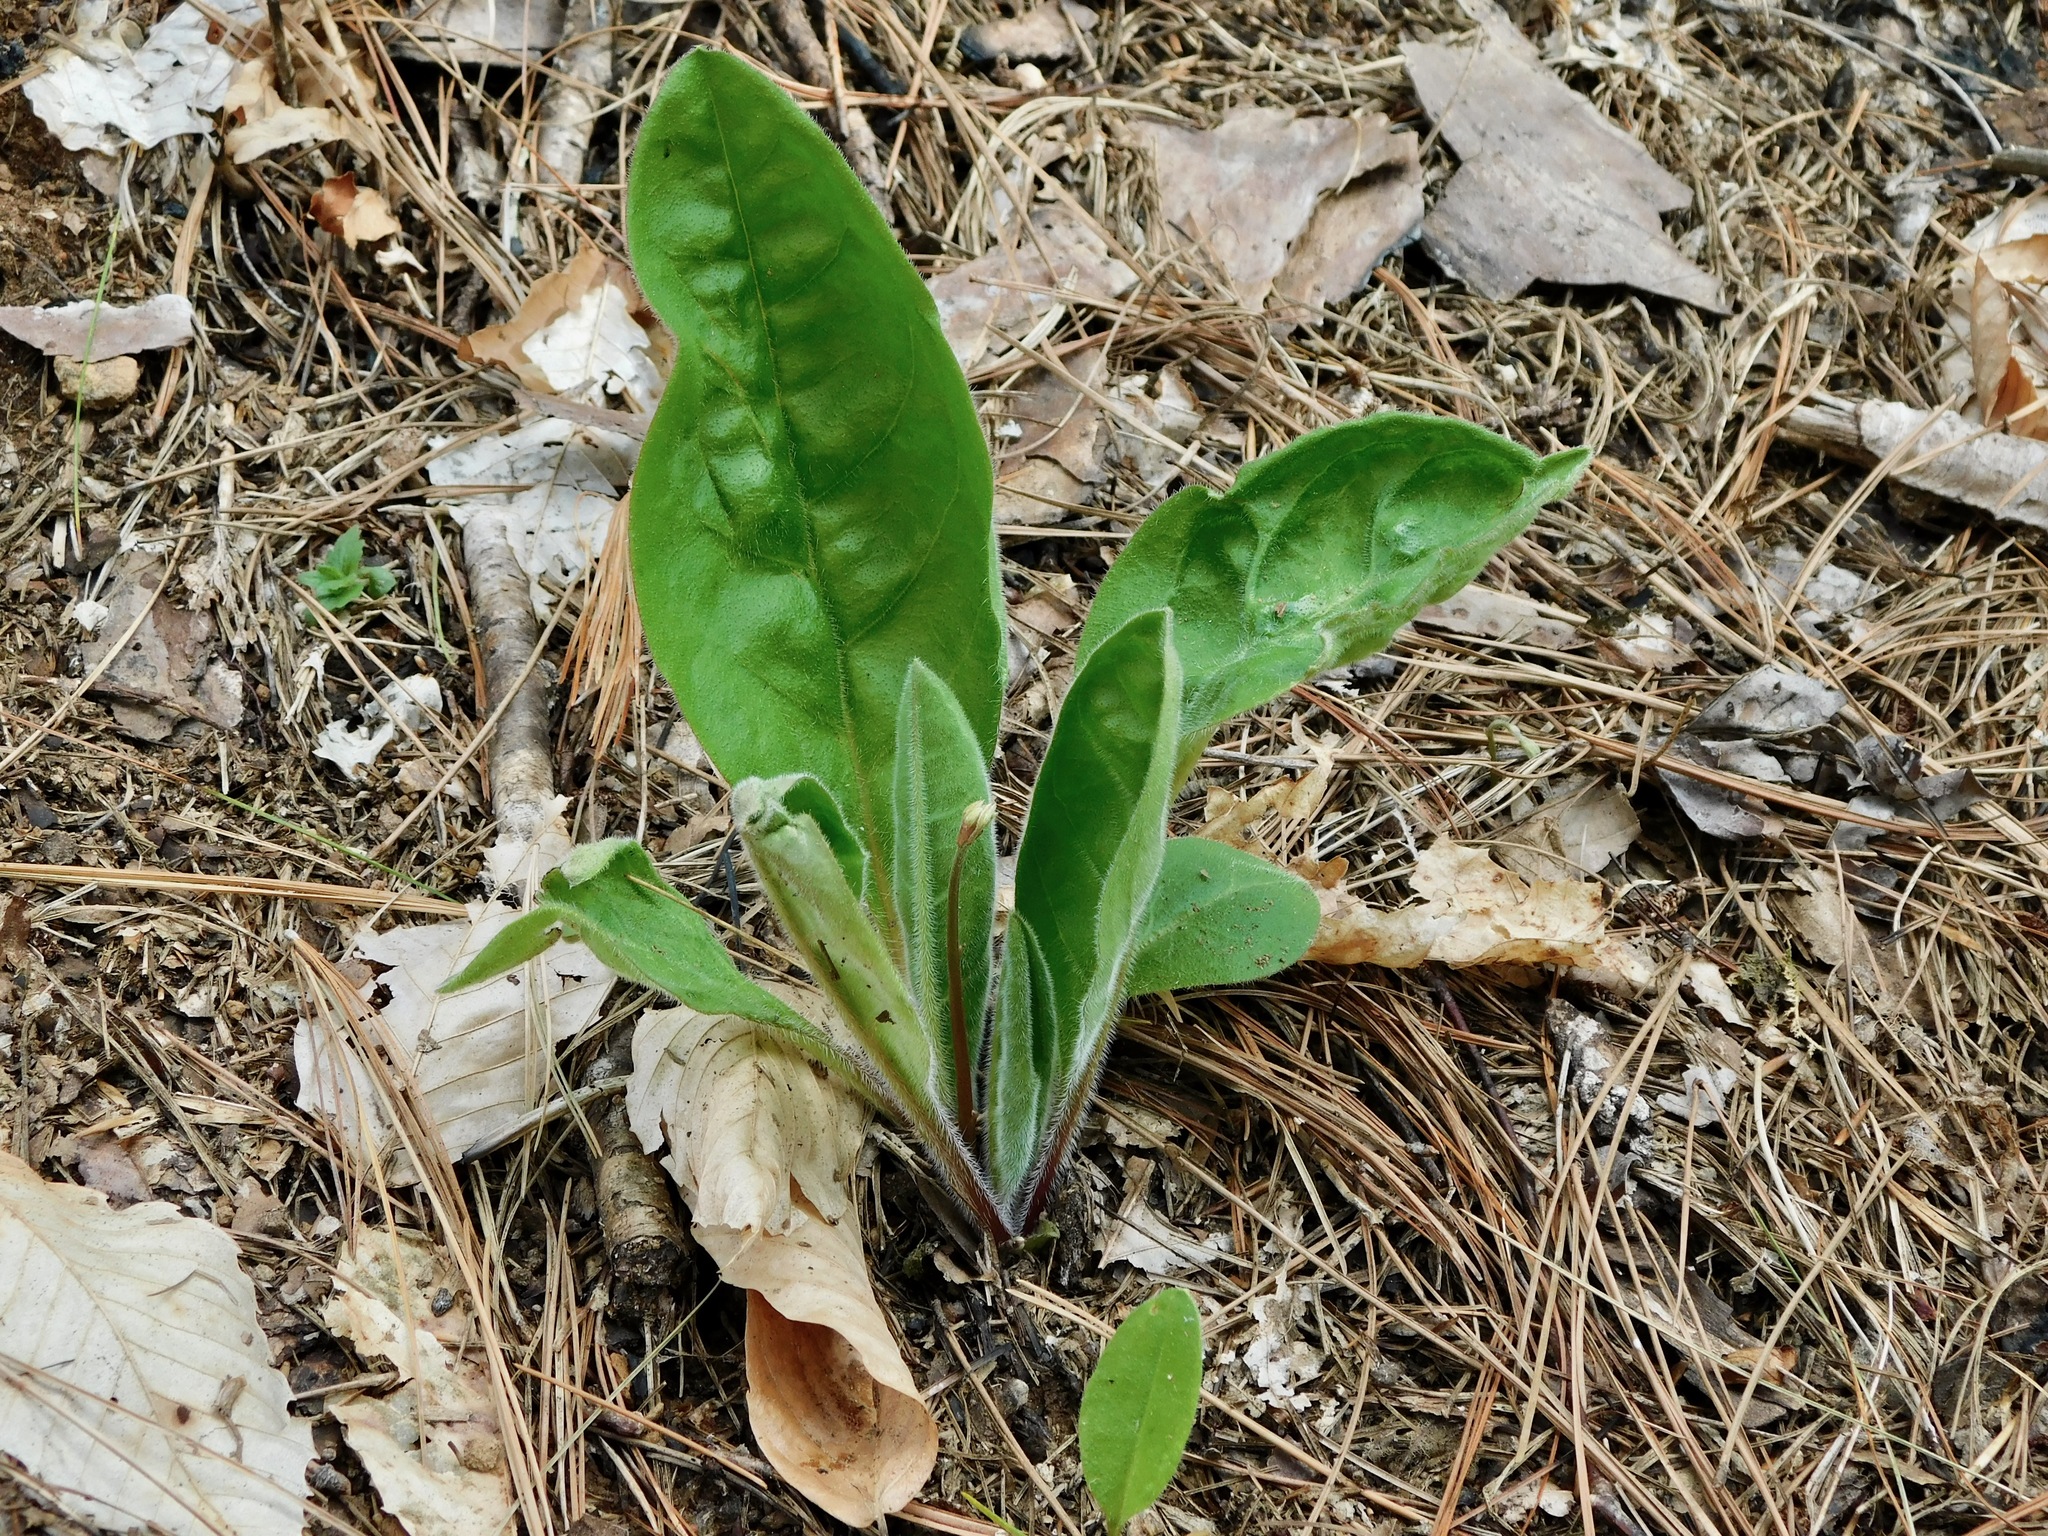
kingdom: Plantae
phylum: Tracheophyta
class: Magnoliopsida
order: Boraginales
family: Boraginaceae
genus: Andersonglossum
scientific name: Andersonglossum virginianum
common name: Wild comfrey
